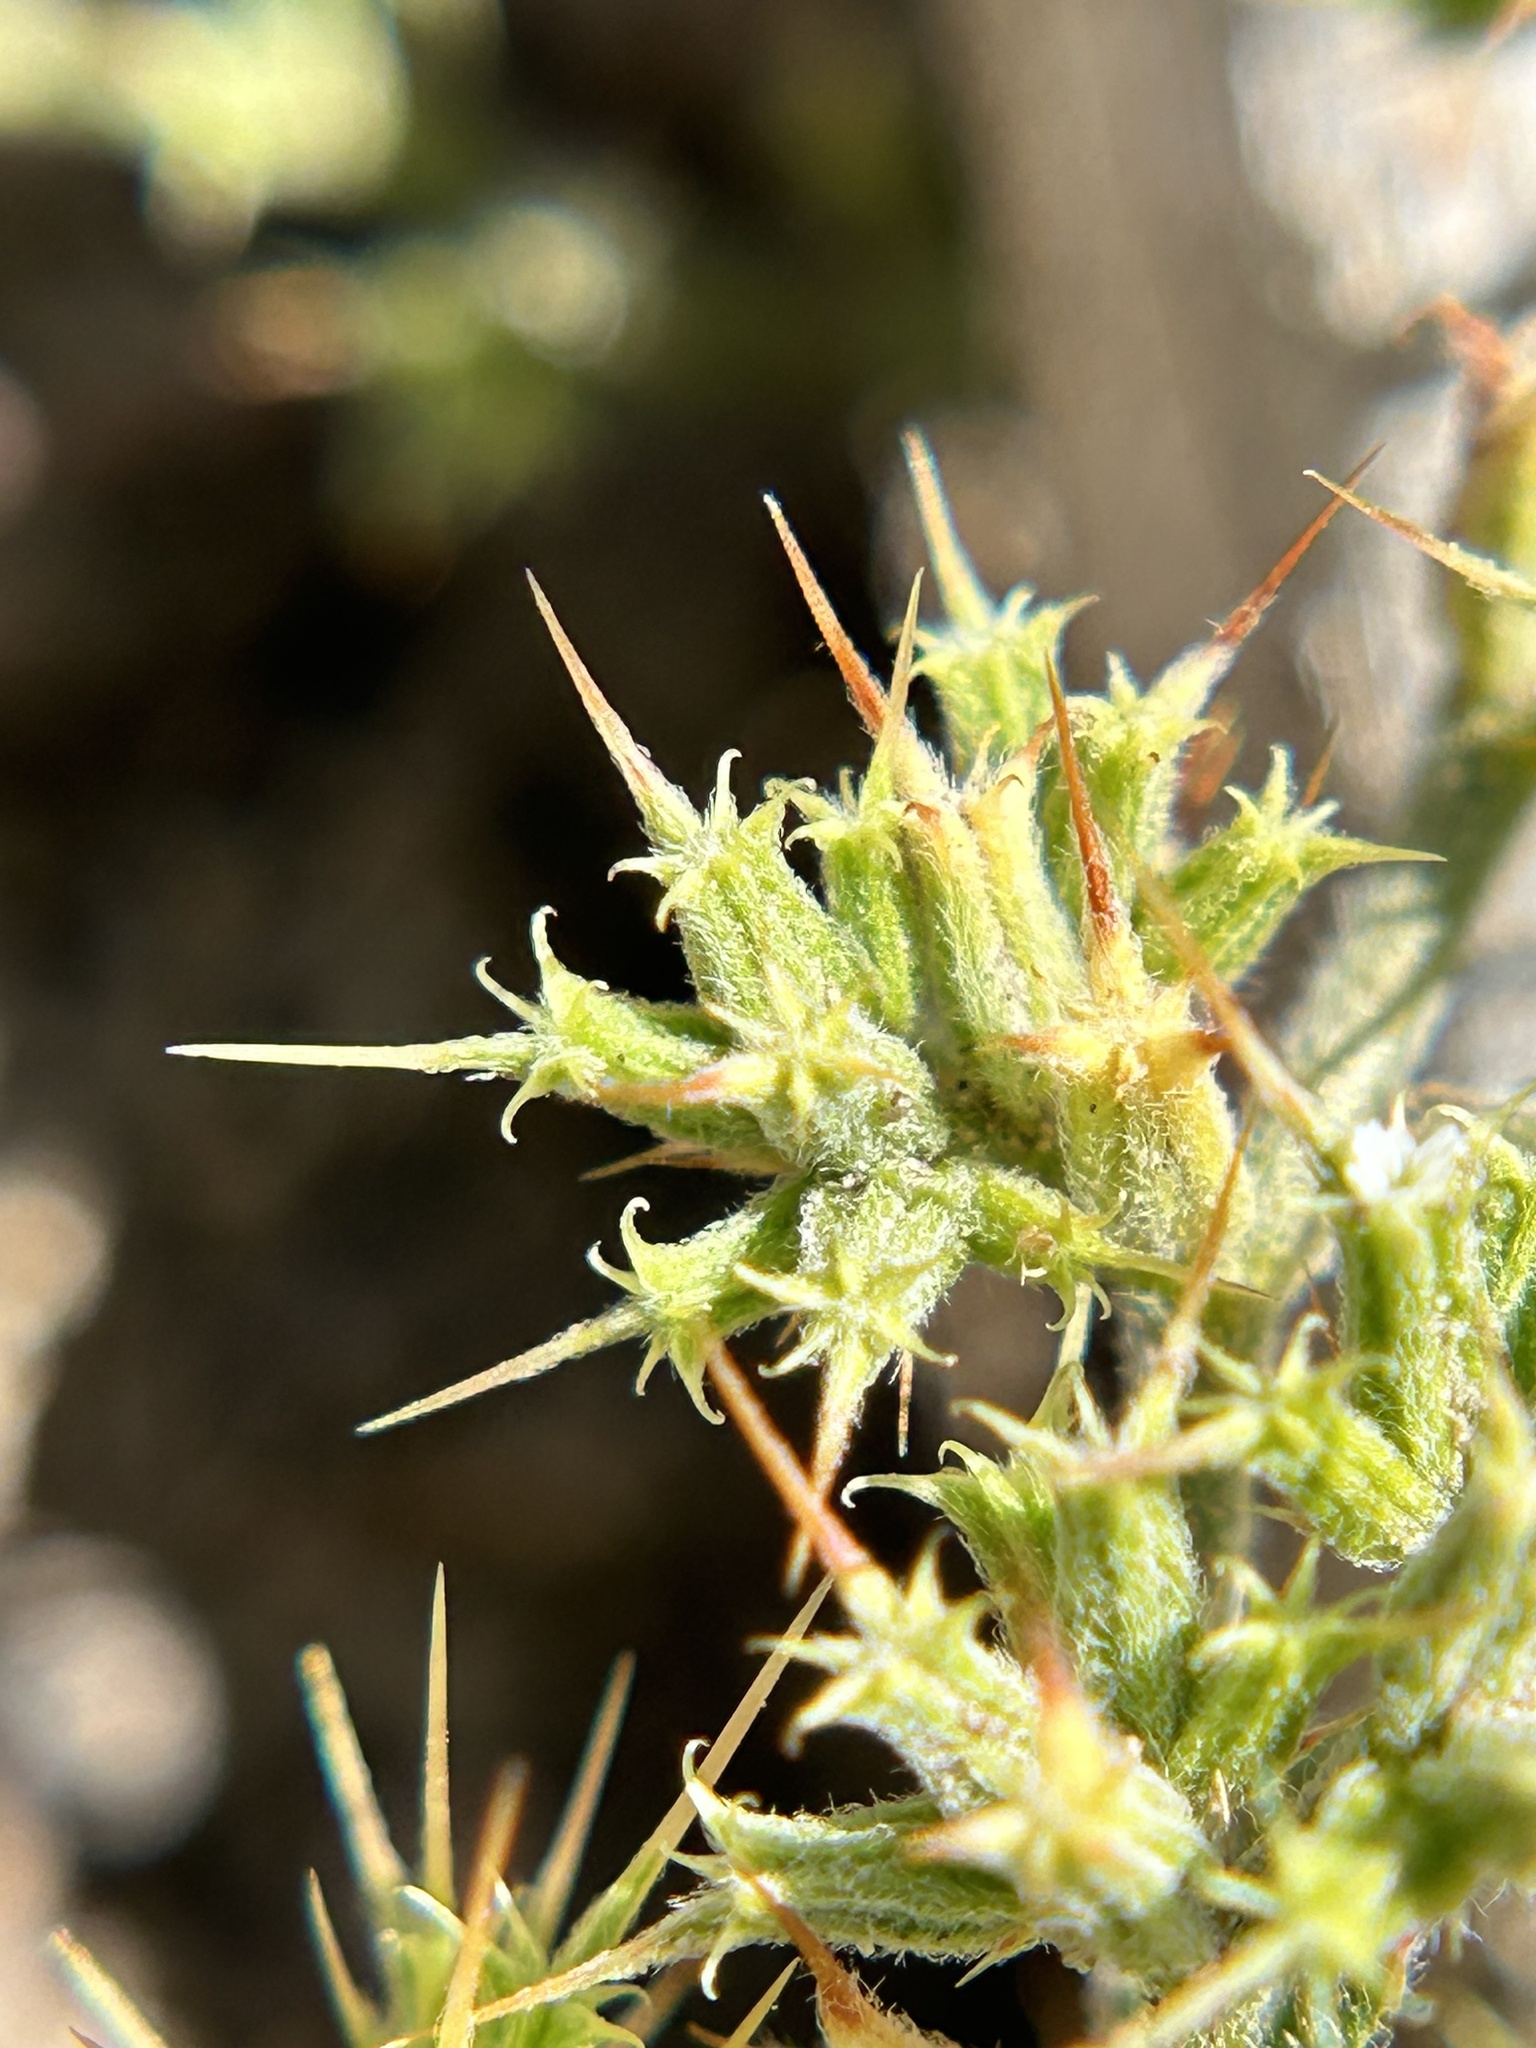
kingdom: Plantae
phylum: Tracheophyta
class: Magnoliopsida
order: Caryophyllales
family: Polygonaceae
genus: Chorizanthe
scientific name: Chorizanthe uniaristata
